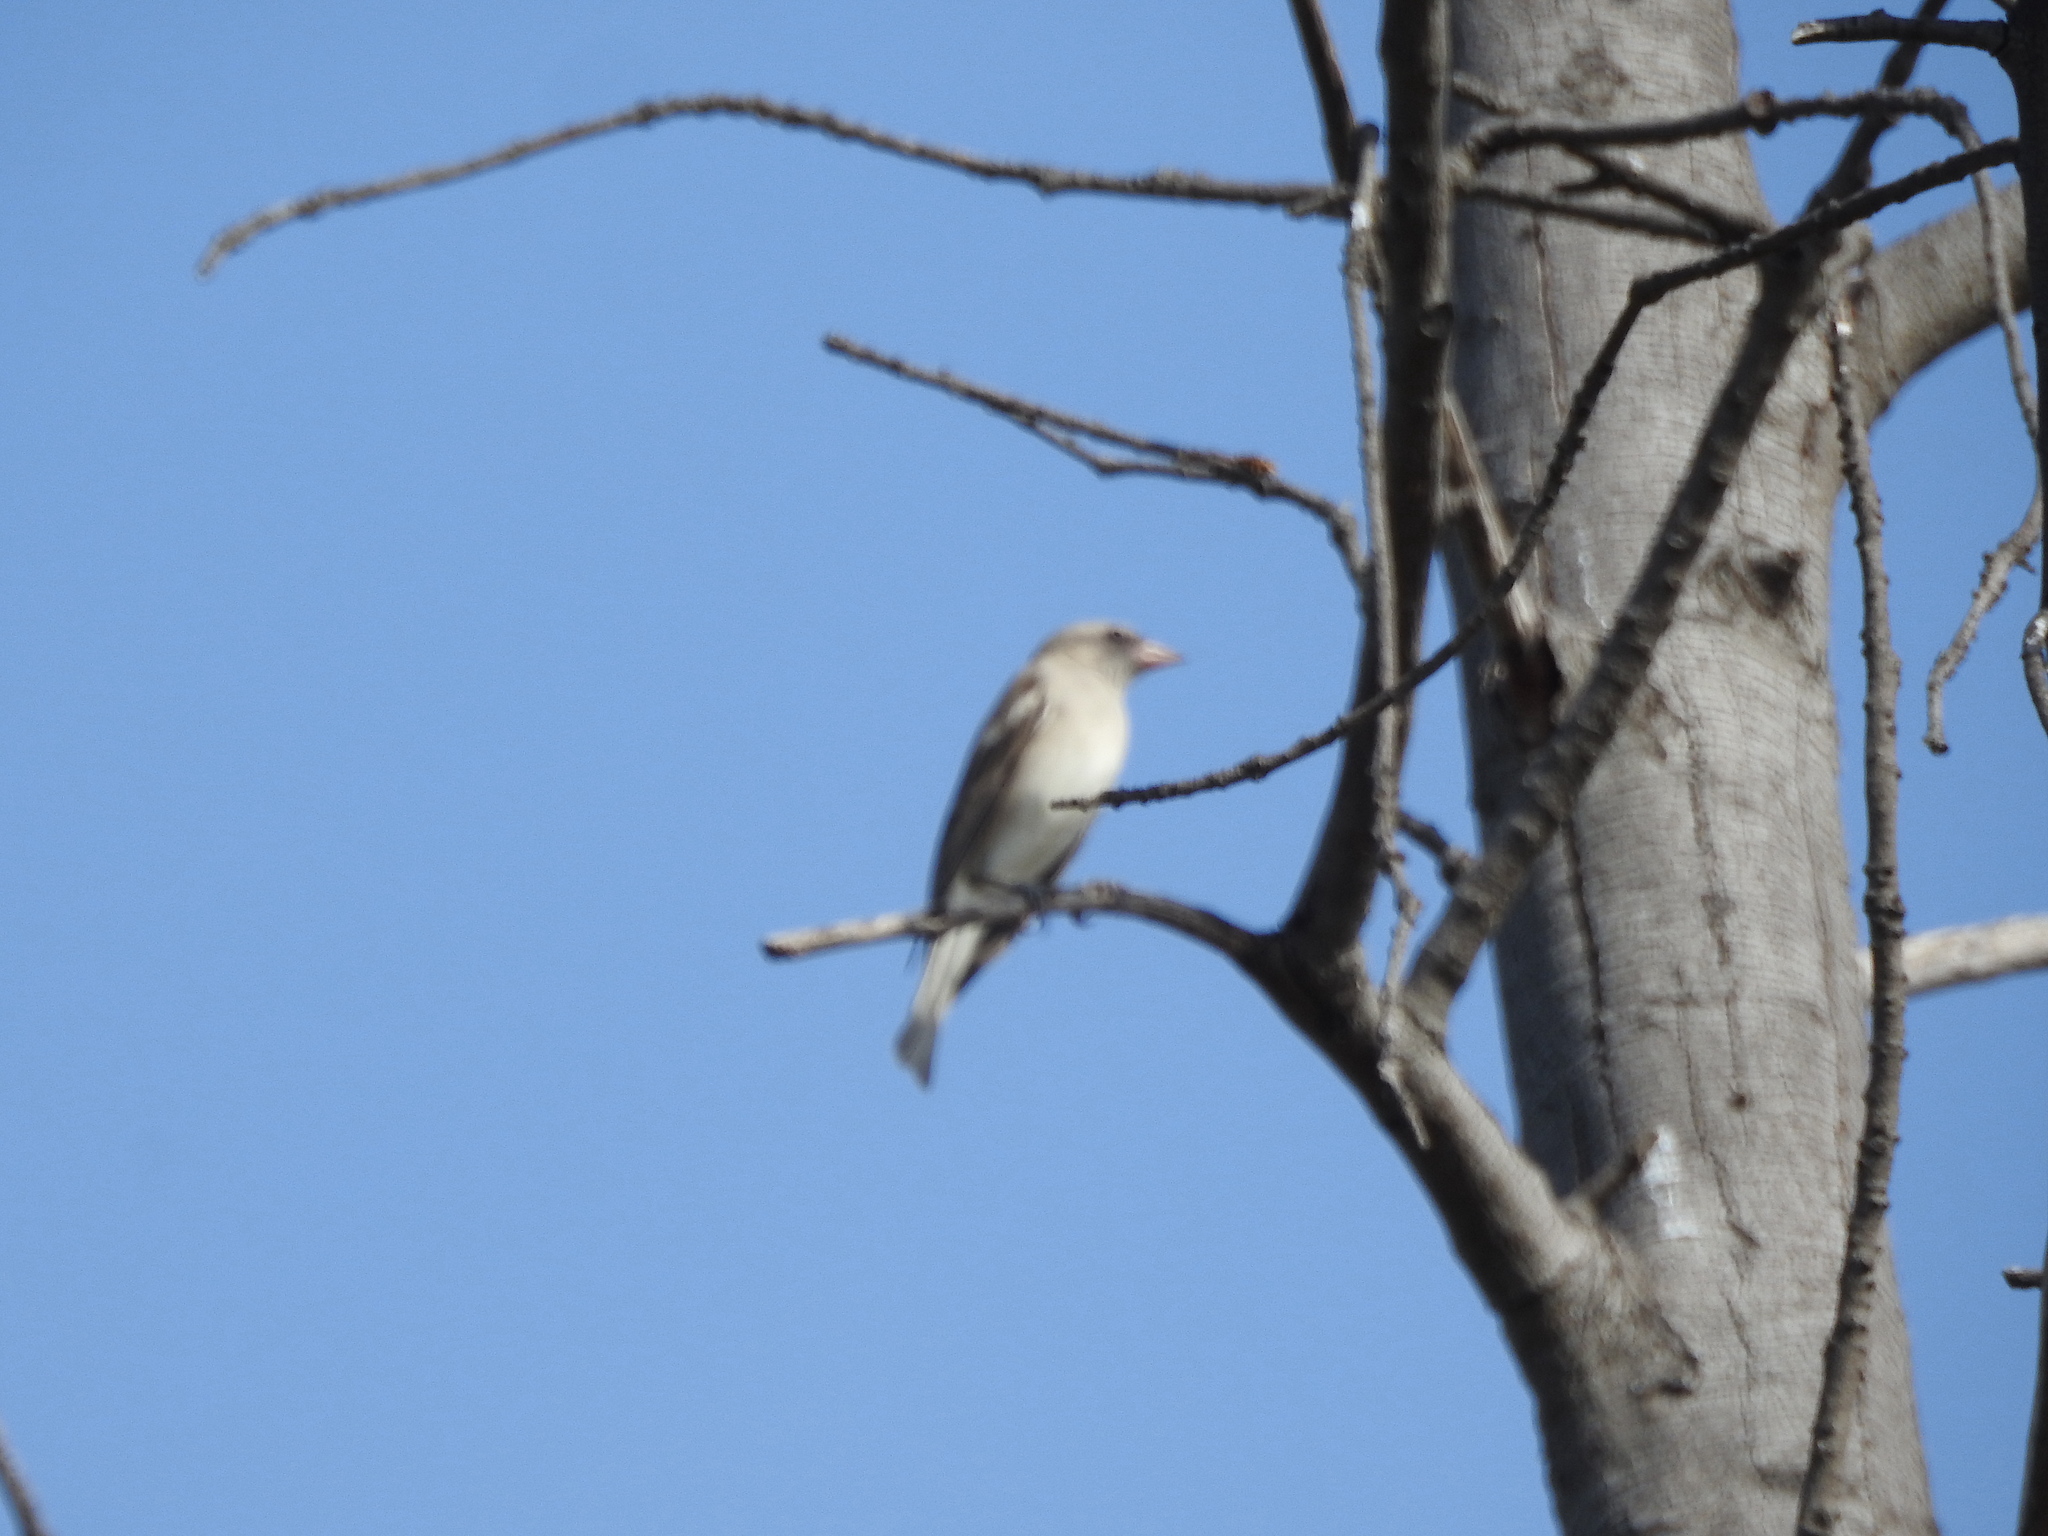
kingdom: Animalia
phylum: Chordata
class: Aves
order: Passeriformes
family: Passeridae
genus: Gymnoris
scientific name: Gymnoris xanthocollis
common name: Yellow-throated sparrow
